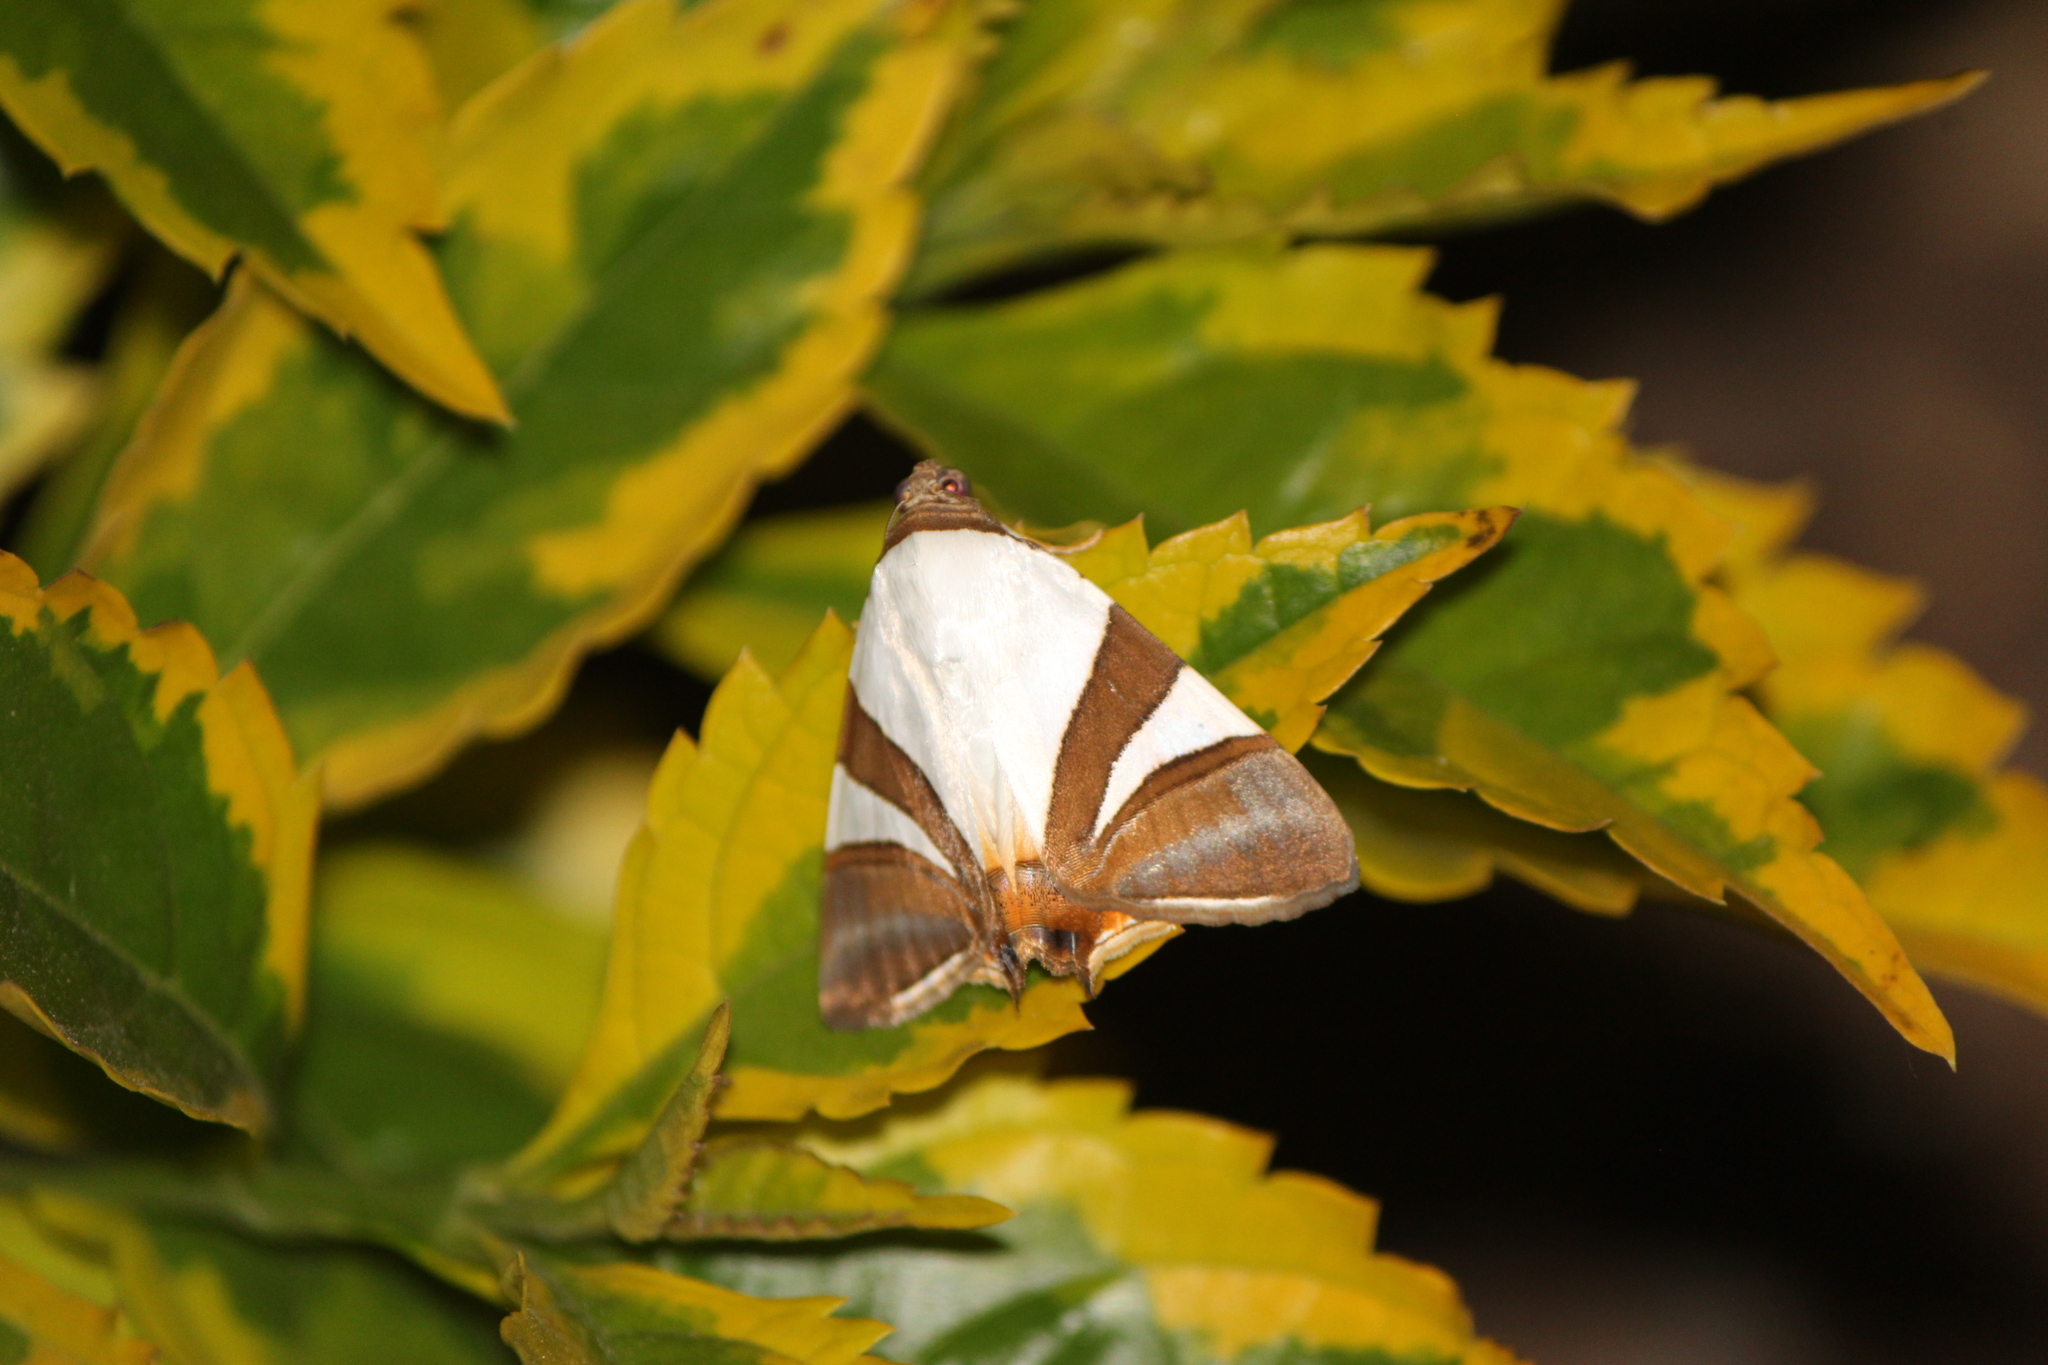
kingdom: Animalia
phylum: Arthropoda
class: Insecta
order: Lepidoptera
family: Erebidae
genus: Eulepidotis
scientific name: Eulepidotis rectimargo
